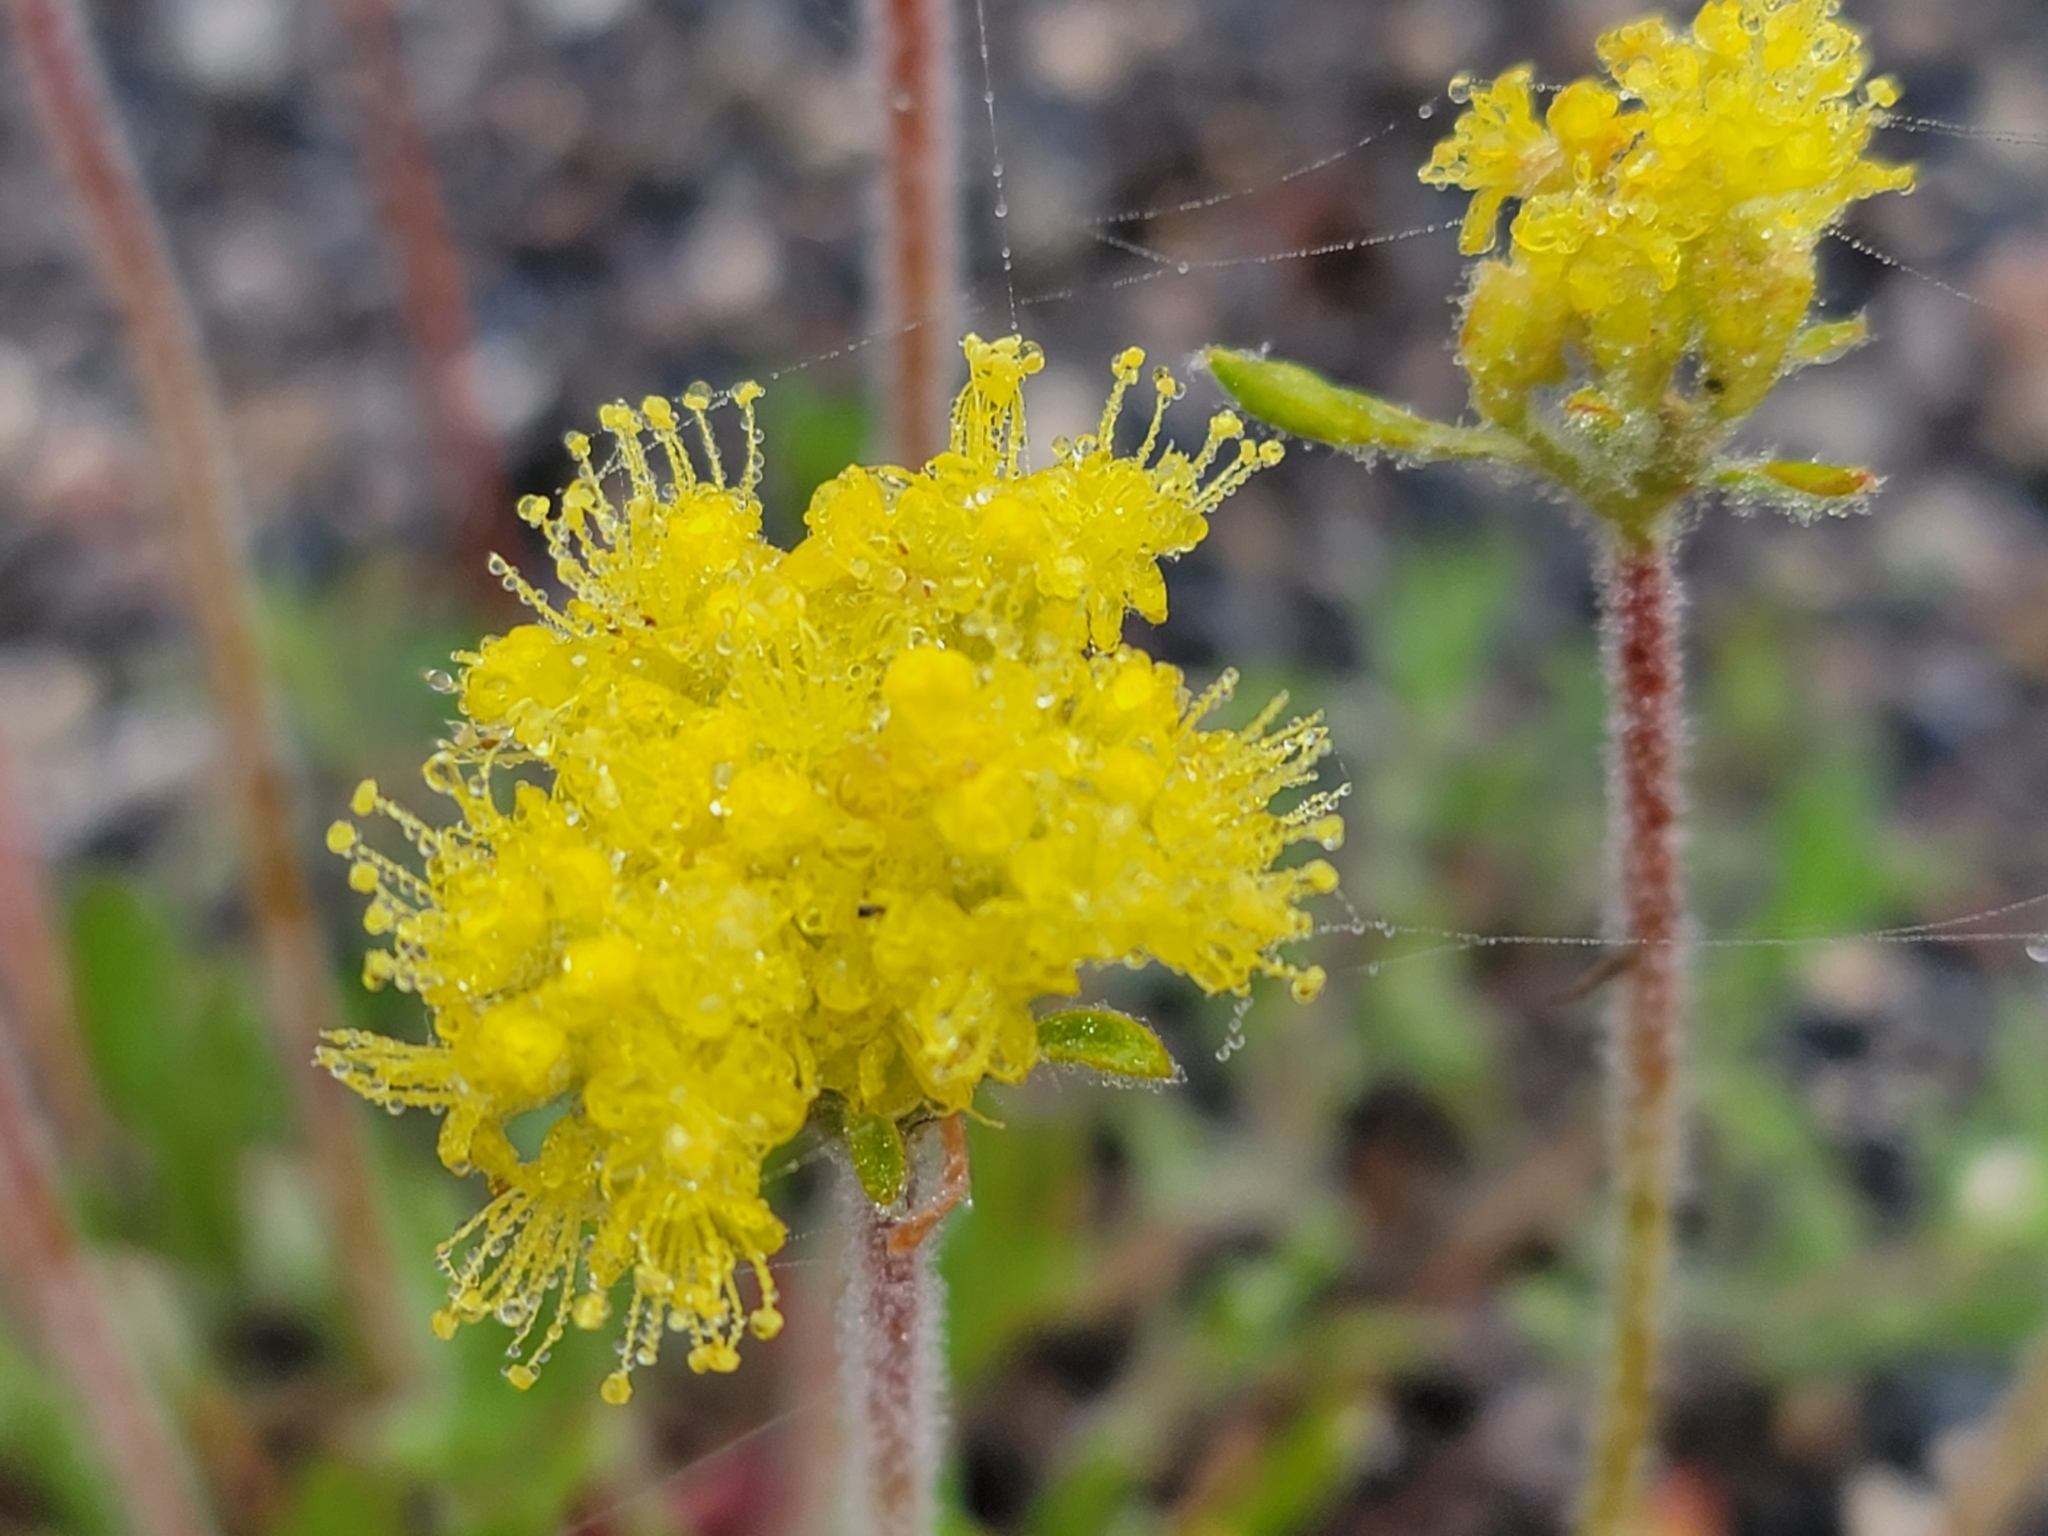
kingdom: Plantae
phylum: Tracheophyta
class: Magnoliopsida
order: Caryophyllales
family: Polygonaceae
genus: Eriogonum
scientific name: Eriogonum umbellatum
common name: Sulfur-buckwheat
